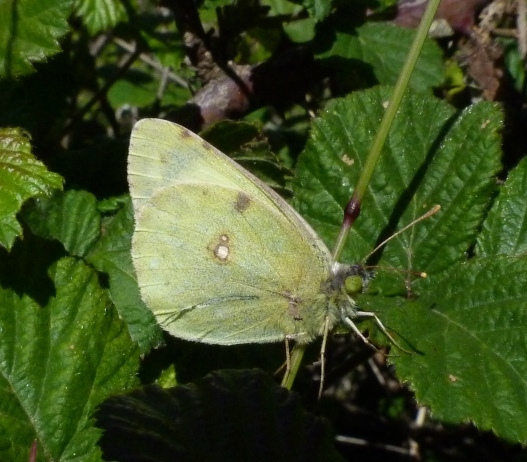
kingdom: Animalia
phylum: Arthropoda
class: Insecta
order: Lepidoptera
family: Pieridae
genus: Colias
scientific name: Colias alfacariensis
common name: Berger's clouded yellow
